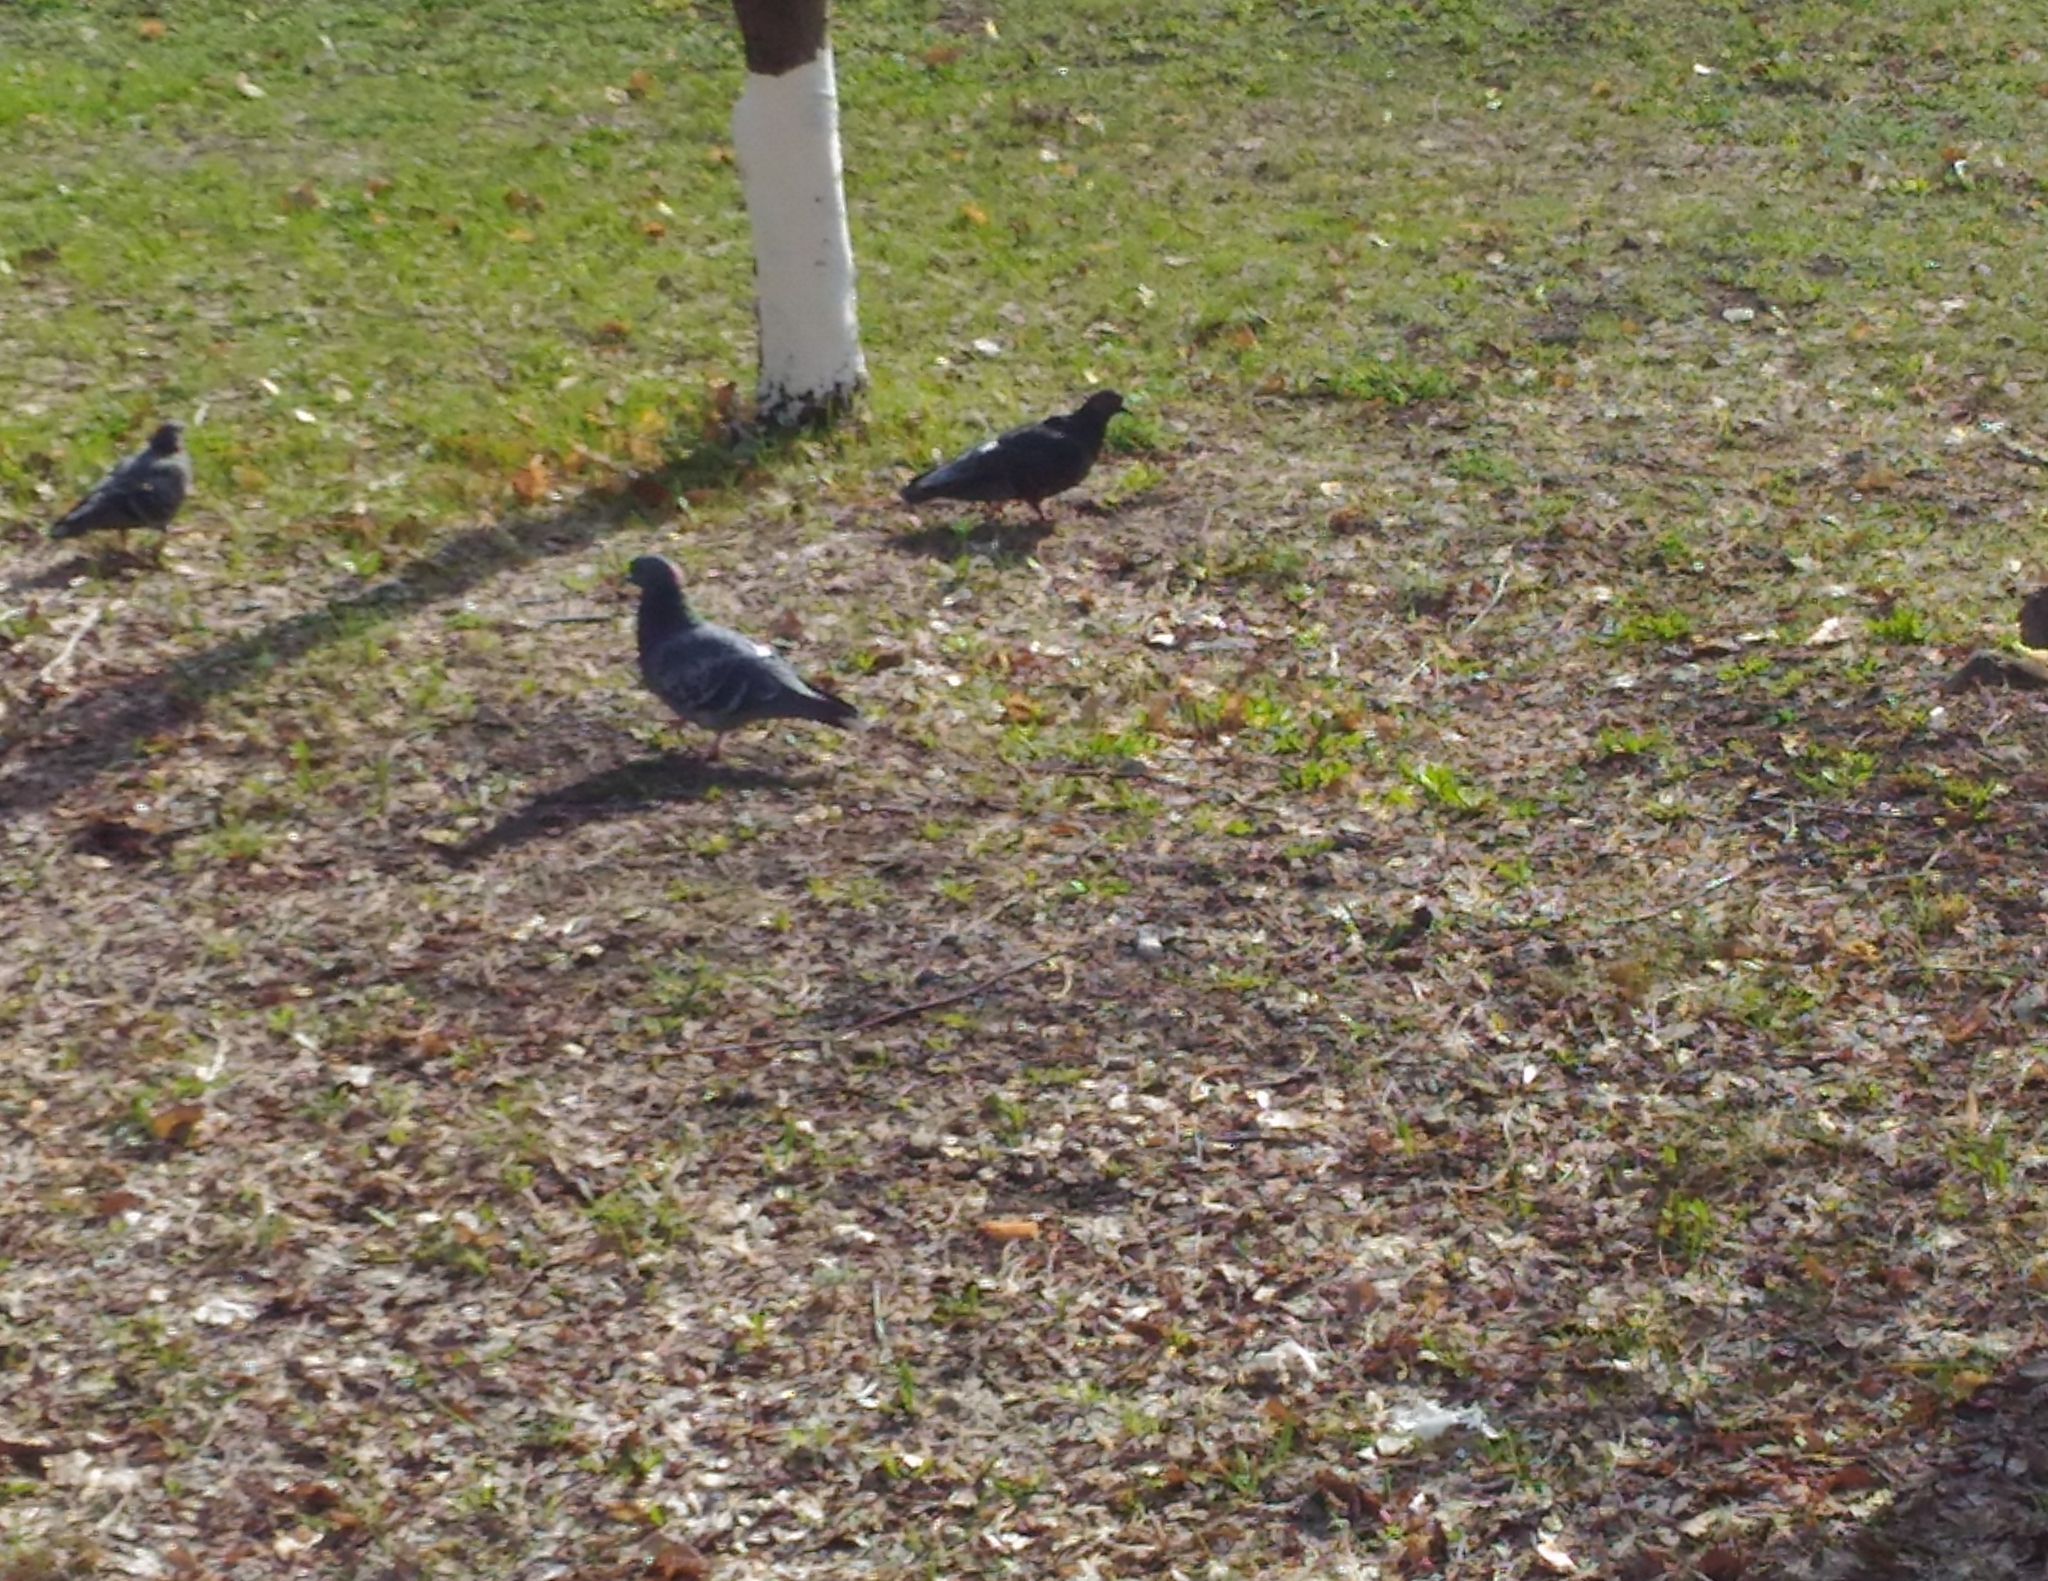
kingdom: Animalia
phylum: Chordata
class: Aves
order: Columbiformes
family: Columbidae
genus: Columba
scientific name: Columba livia
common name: Rock pigeon
